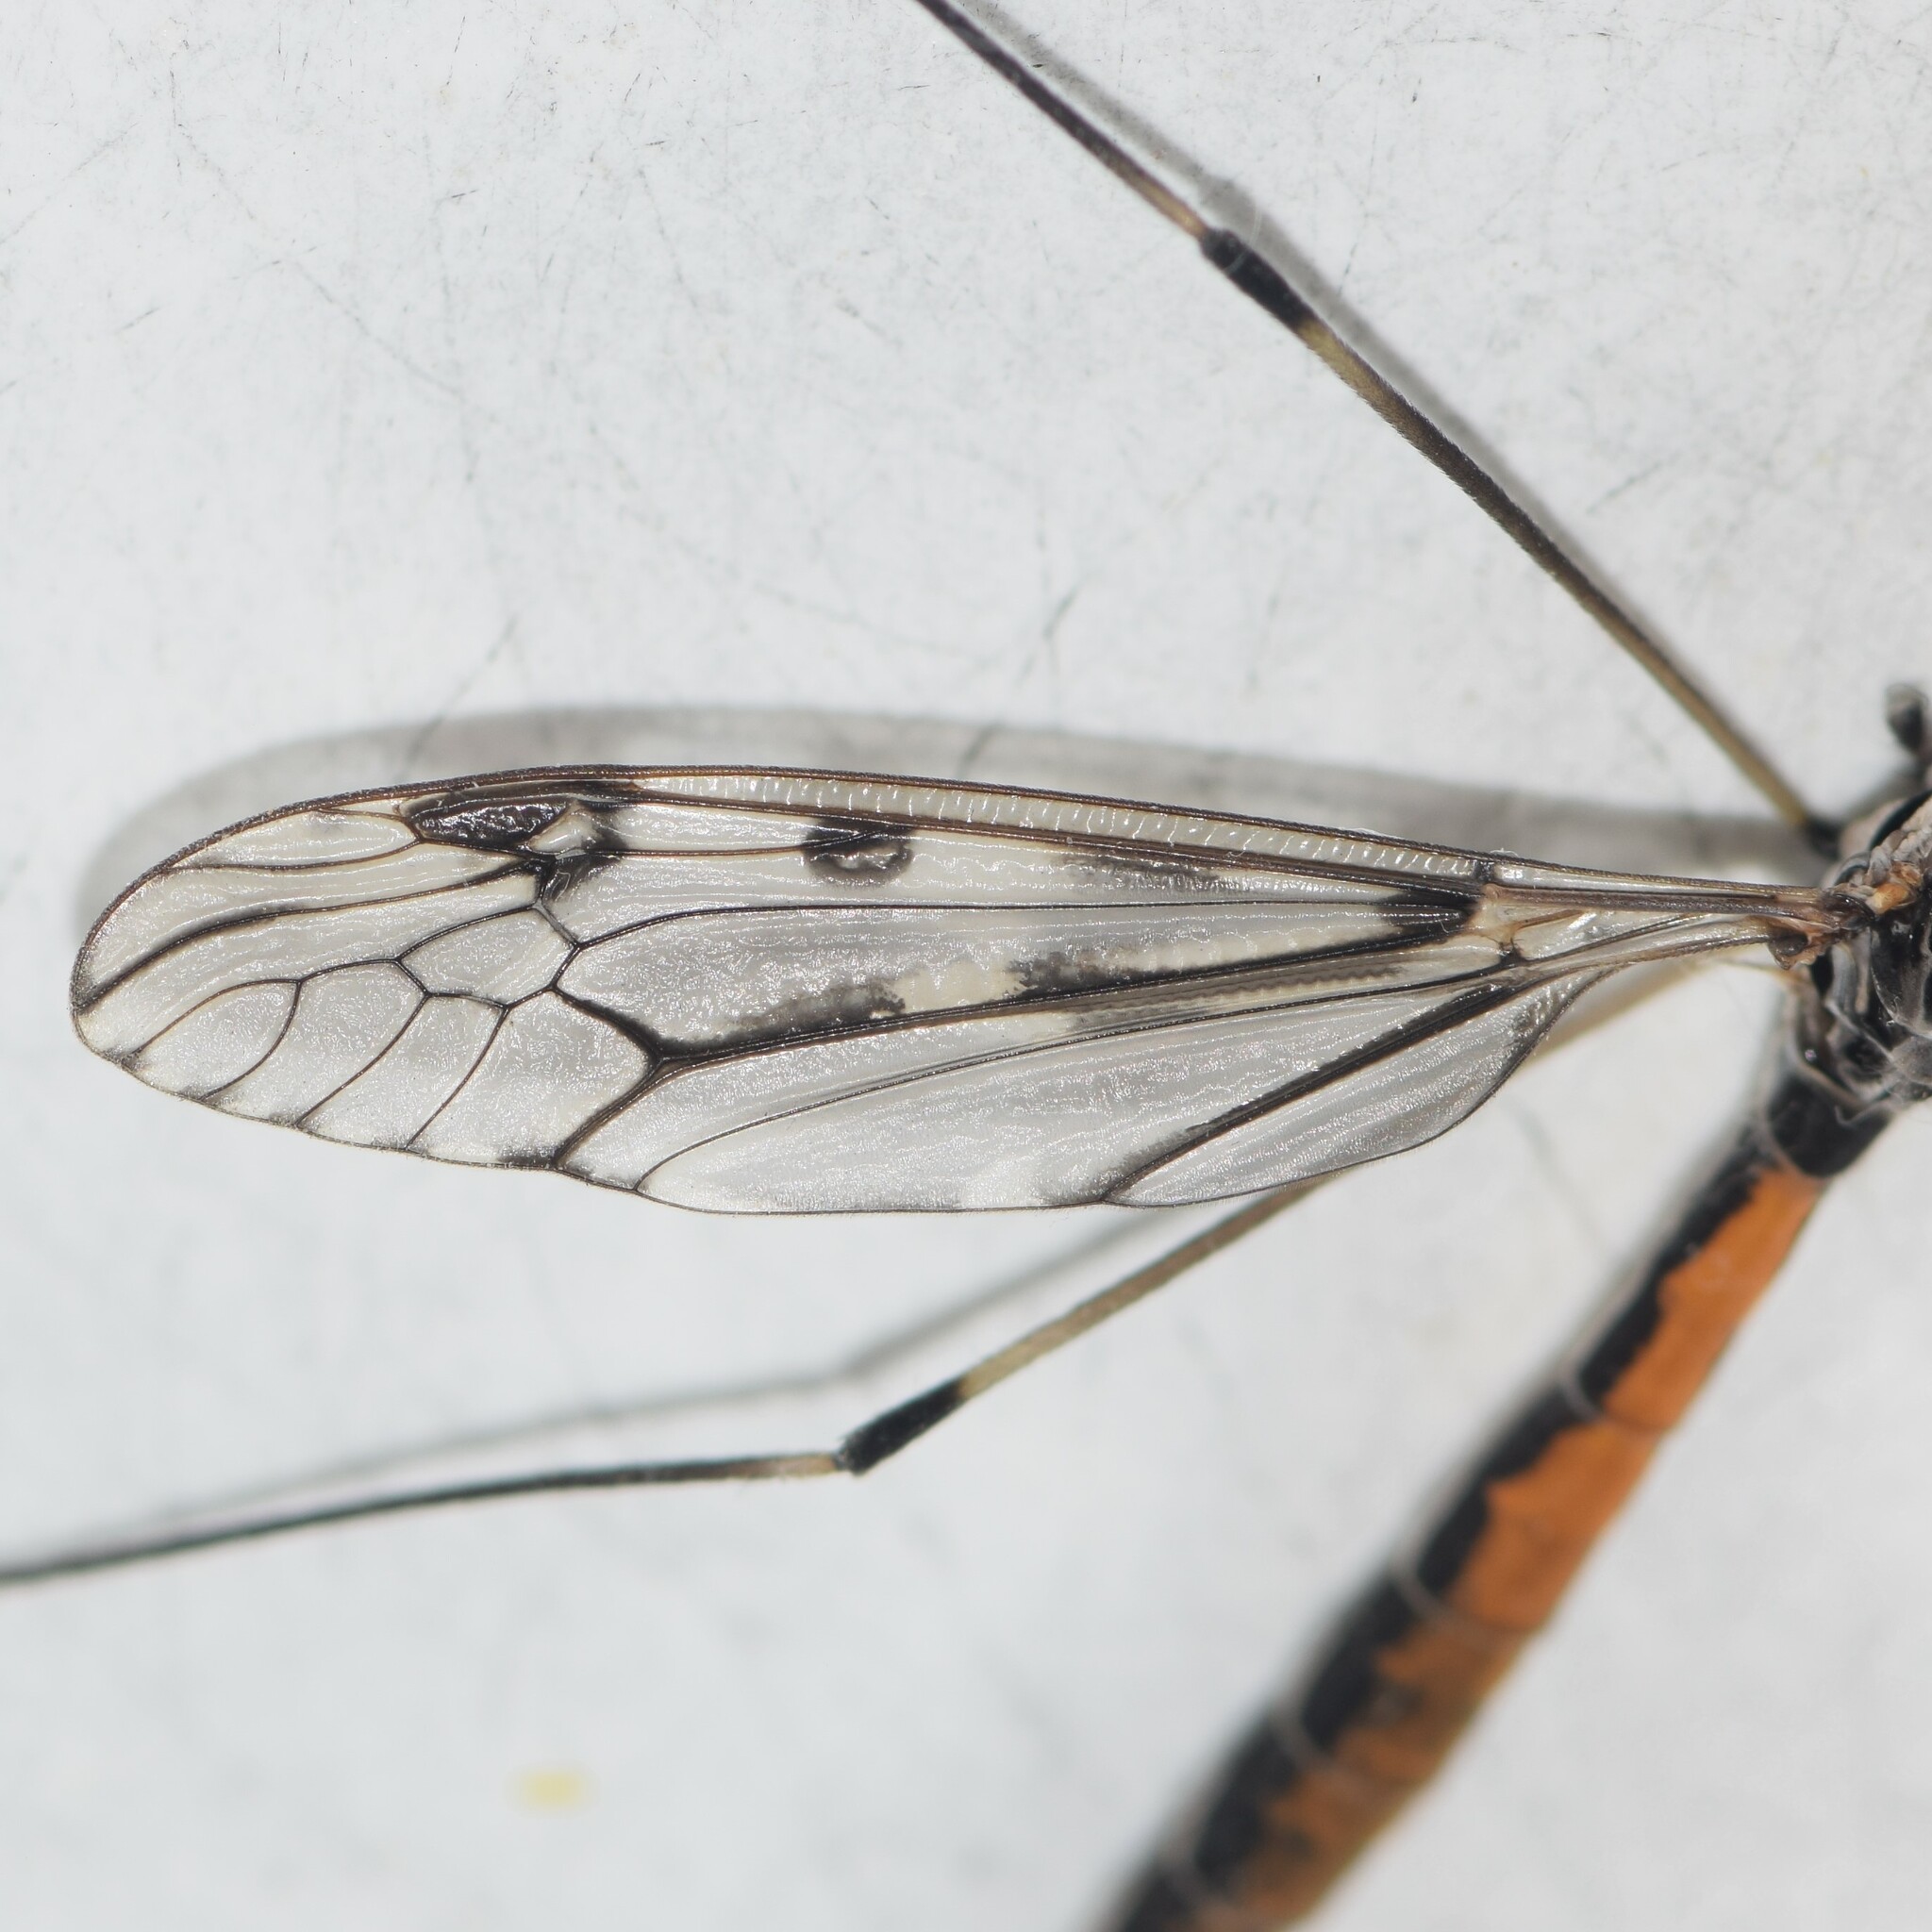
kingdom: Animalia
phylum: Arthropoda
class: Insecta
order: Diptera
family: Tipulidae
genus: Tipula
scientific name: Tipula abdominalis
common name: Giant crane fly
